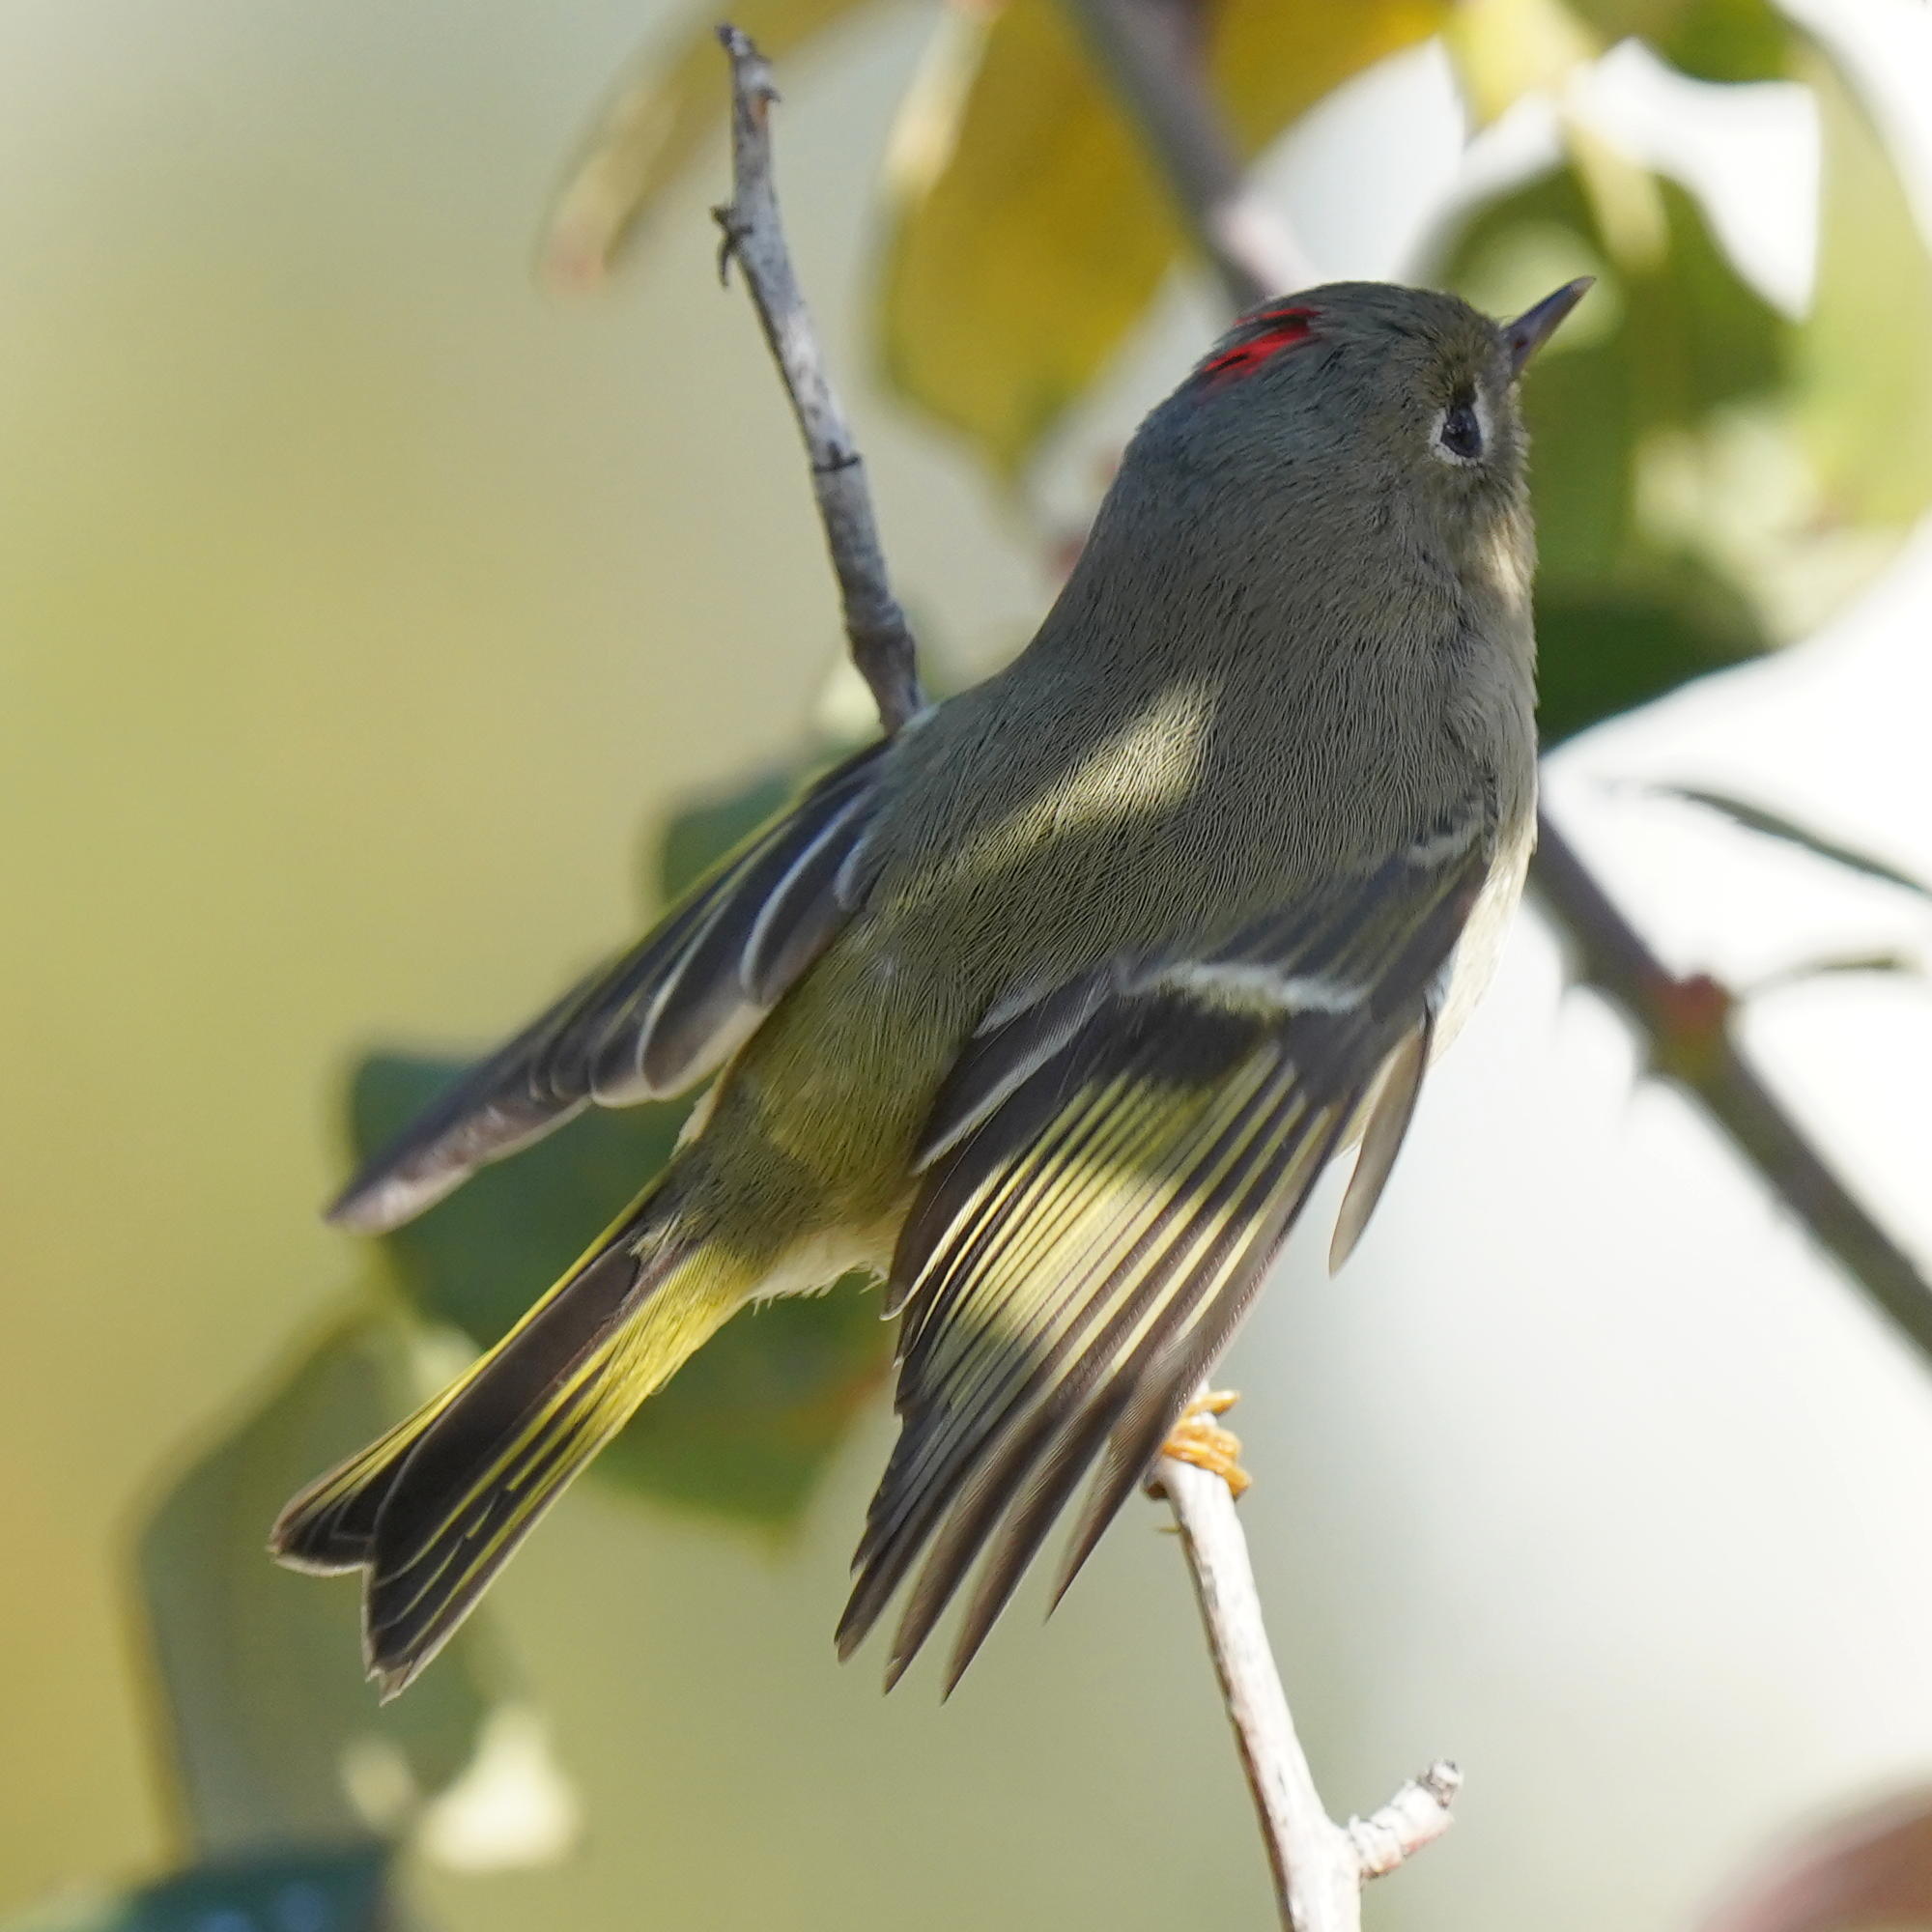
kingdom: Animalia
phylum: Chordata
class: Aves
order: Passeriformes
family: Regulidae
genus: Regulus
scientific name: Regulus calendula
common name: Ruby-crowned kinglet
